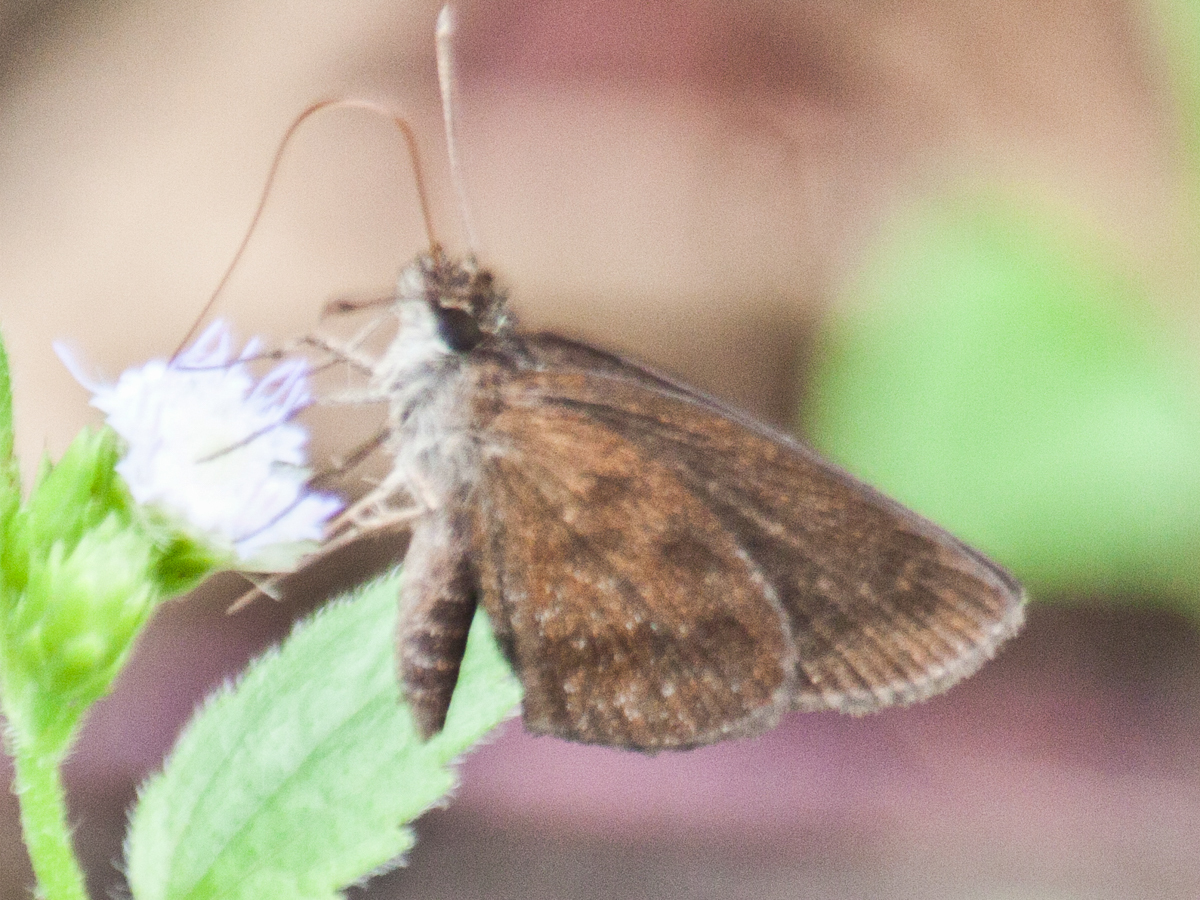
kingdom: Animalia
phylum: Arthropoda
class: Insecta
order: Lepidoptera
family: Hesperiidae
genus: Astictopterus
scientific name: Astictopterus jama
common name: Forest hopper
